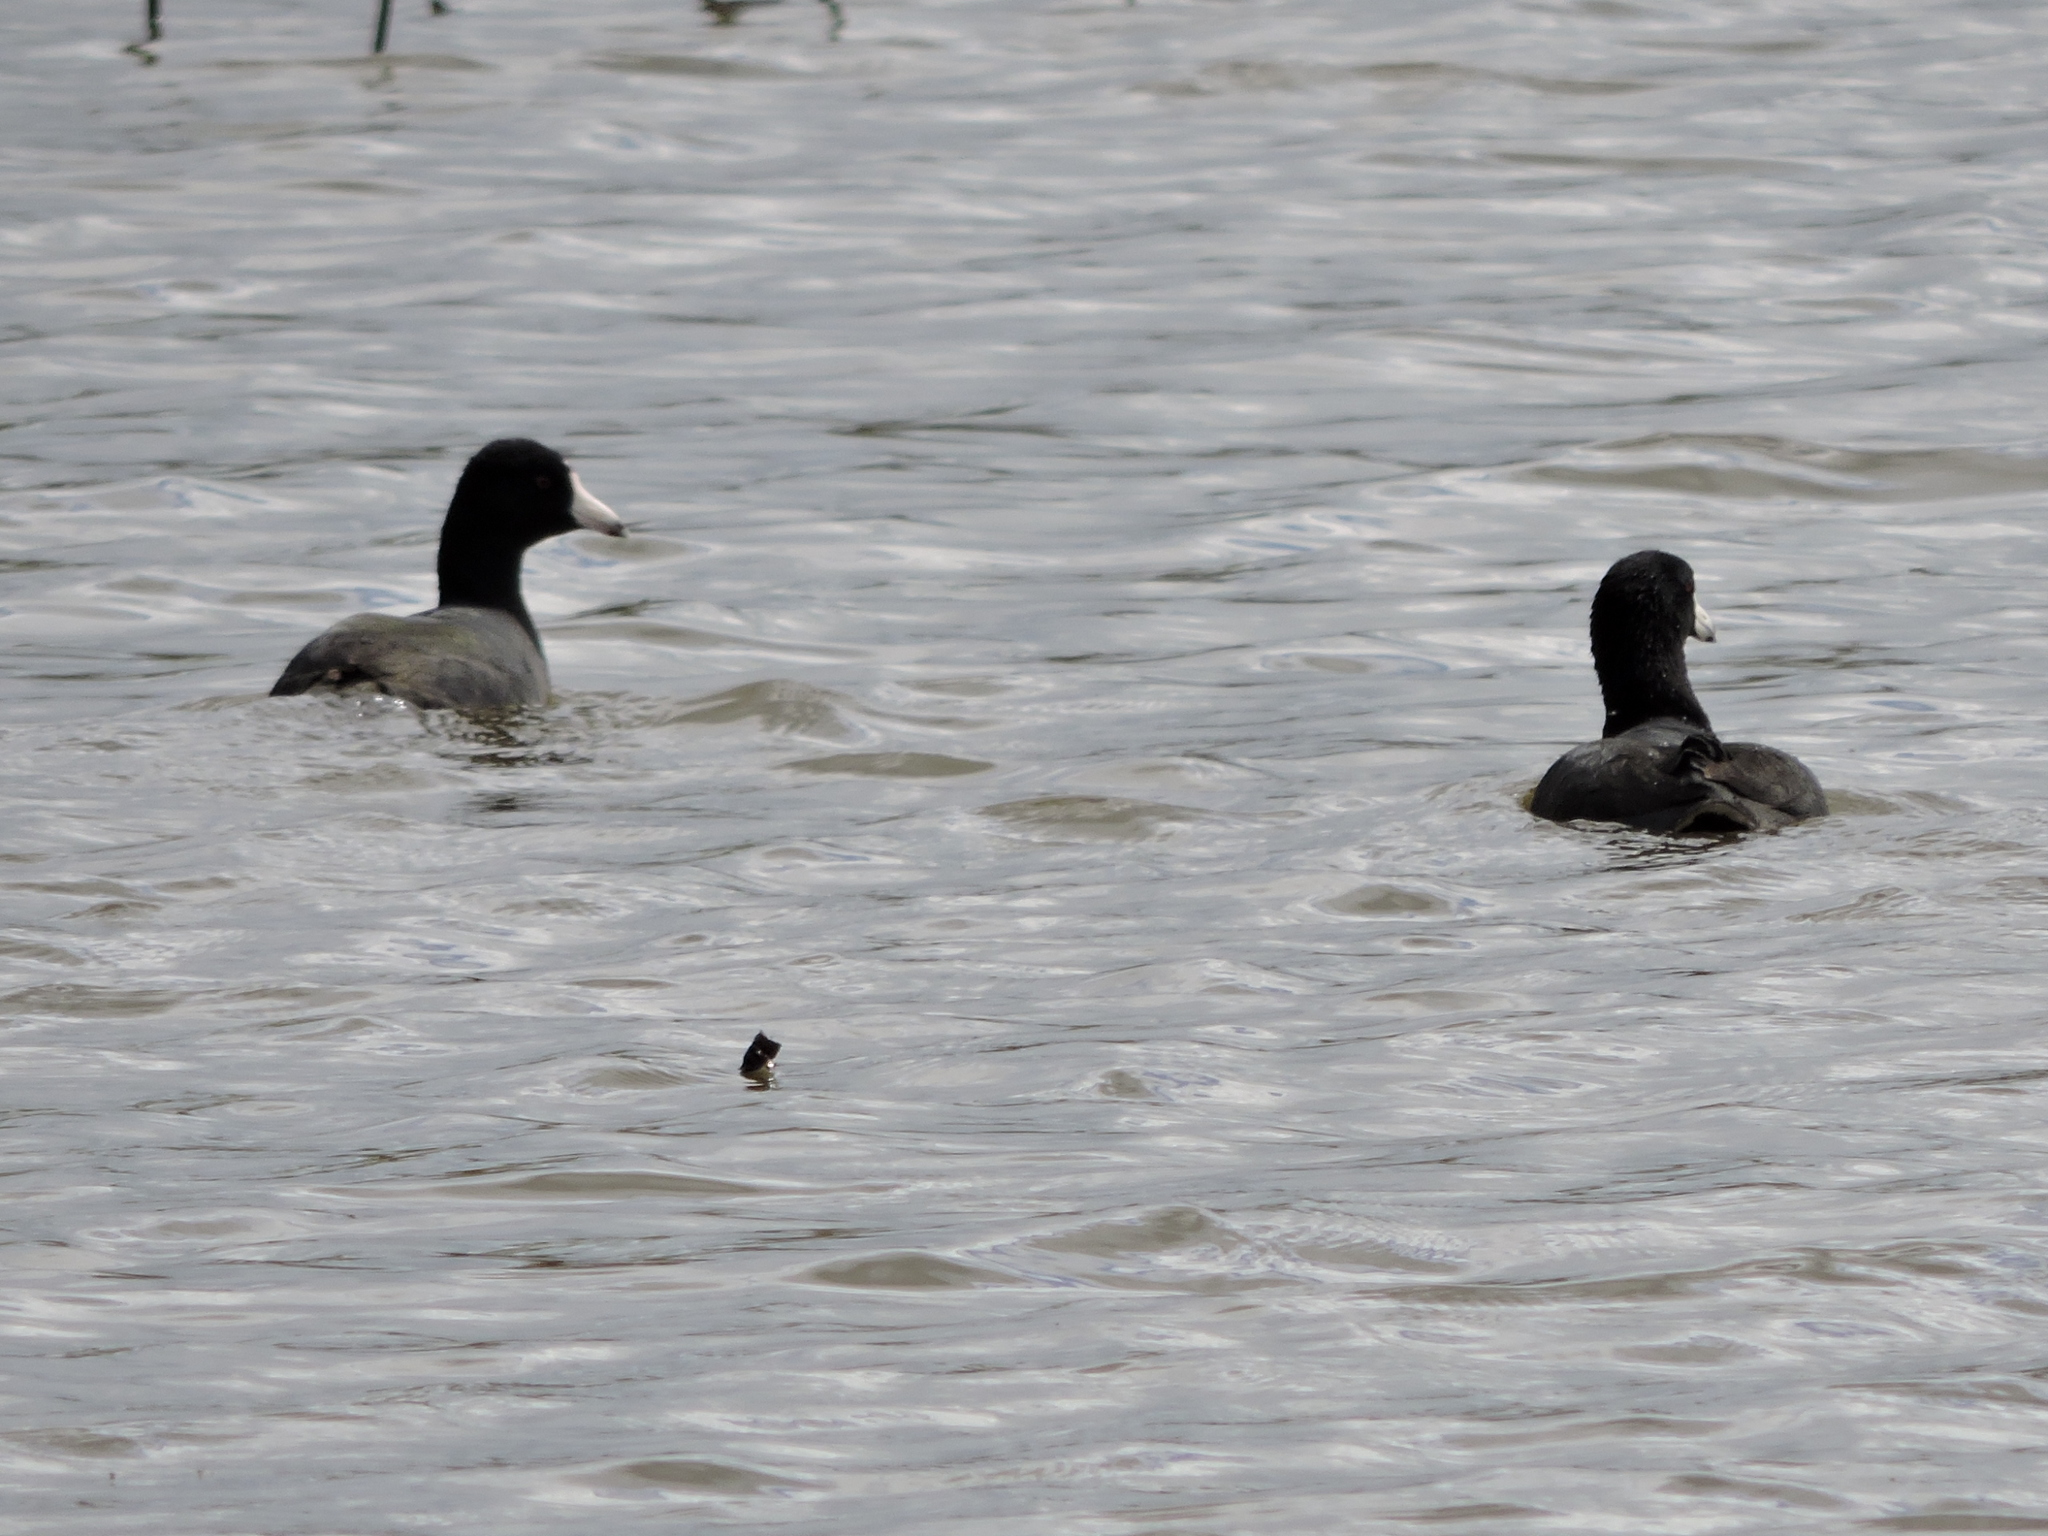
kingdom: Animalia
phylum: Chordata
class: Aves
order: Gruiformes
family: Rallidae
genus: Fulica
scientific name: Fulica americana
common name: American coot
